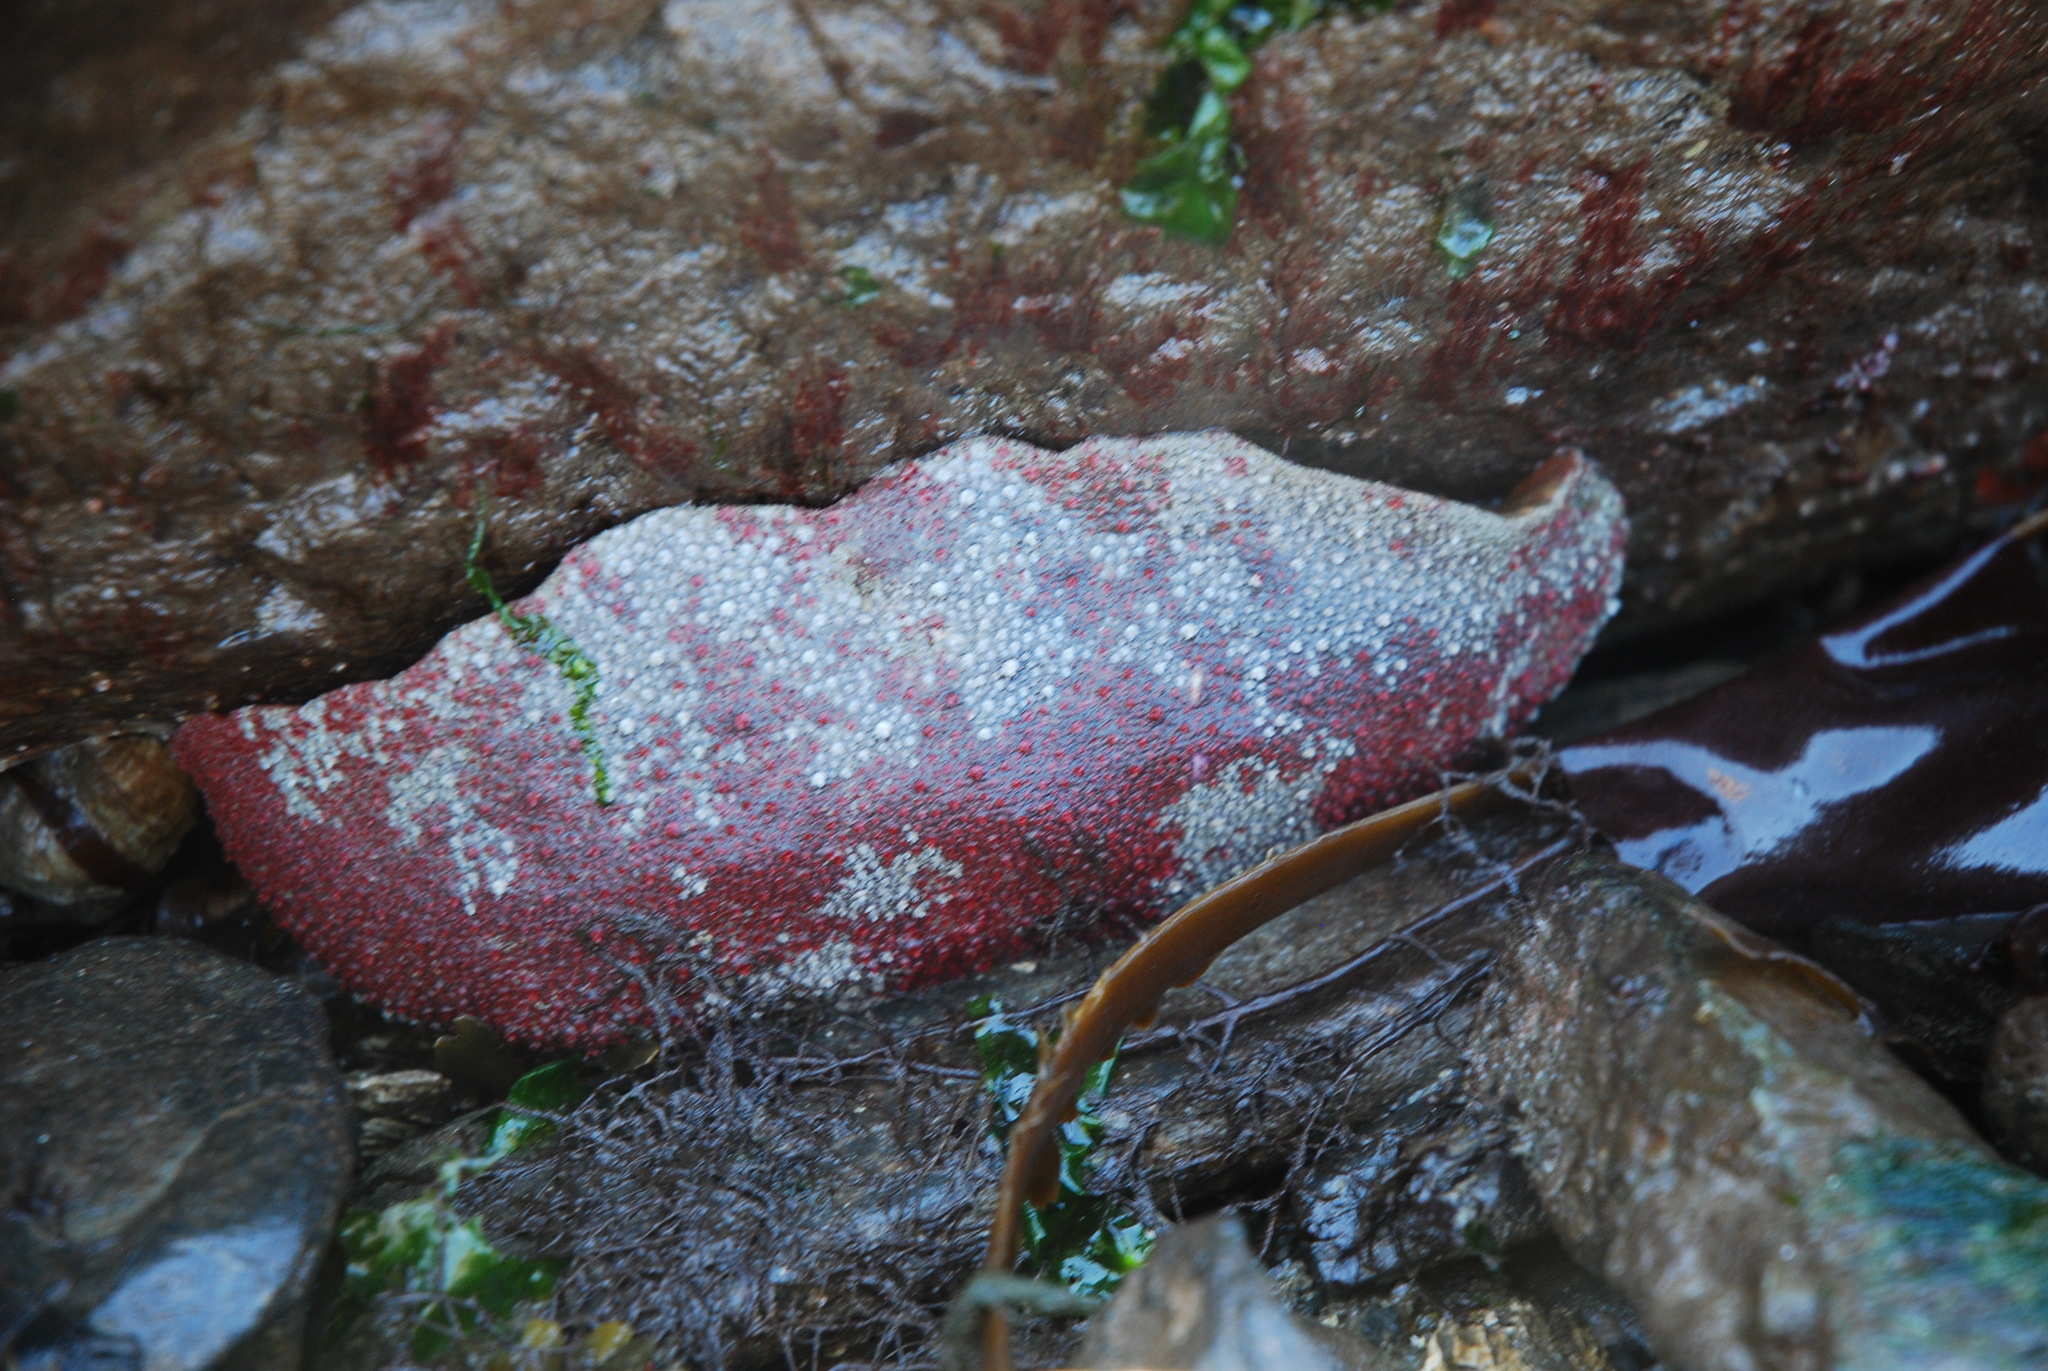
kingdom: Animalia
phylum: Mollusca
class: Polyplacophora
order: Chitonida
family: Acanthochitonidae
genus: Cryptochiton
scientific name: Cryptochiton stelleri
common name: Giant pacific chiton
